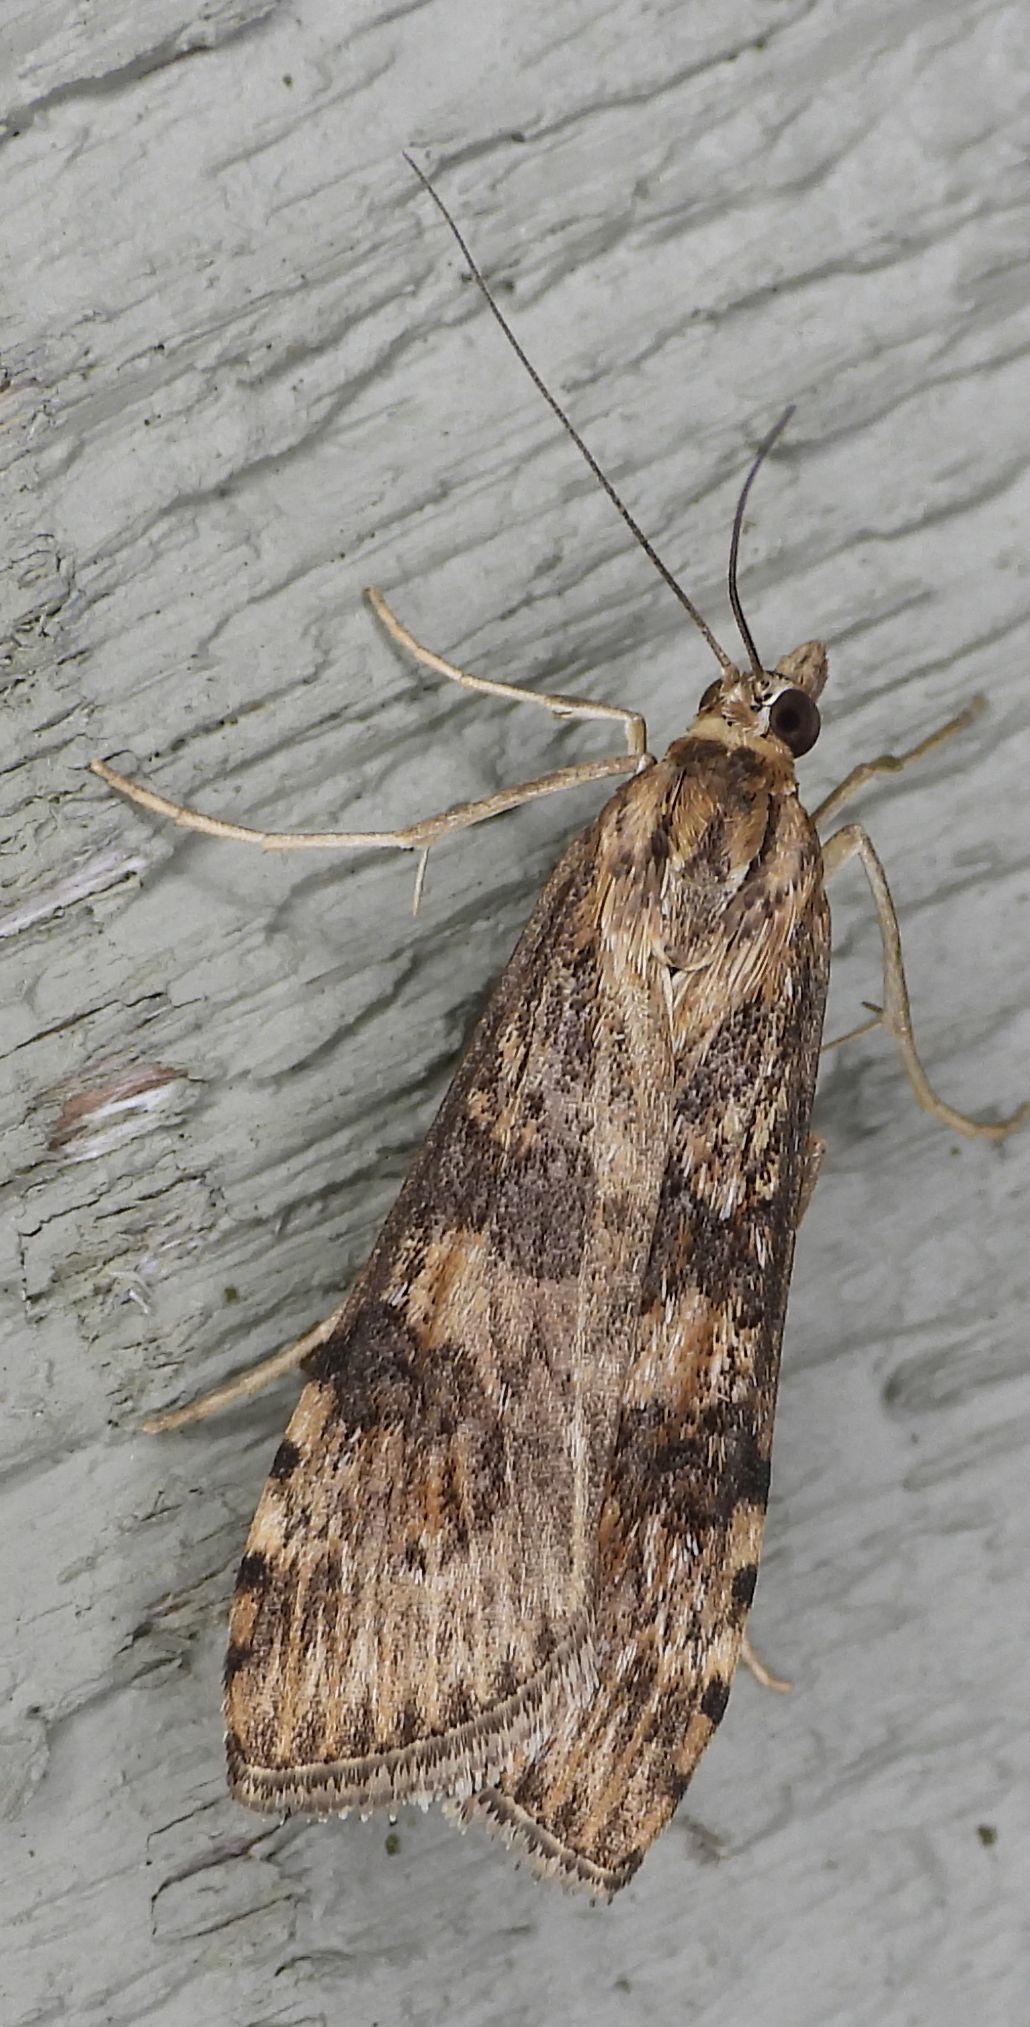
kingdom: Animalia
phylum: Arthropoda
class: Insecta
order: Lepidoptera
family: Crambidae
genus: Nomophila
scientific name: Nomophila nearctica
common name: American rush veneer
